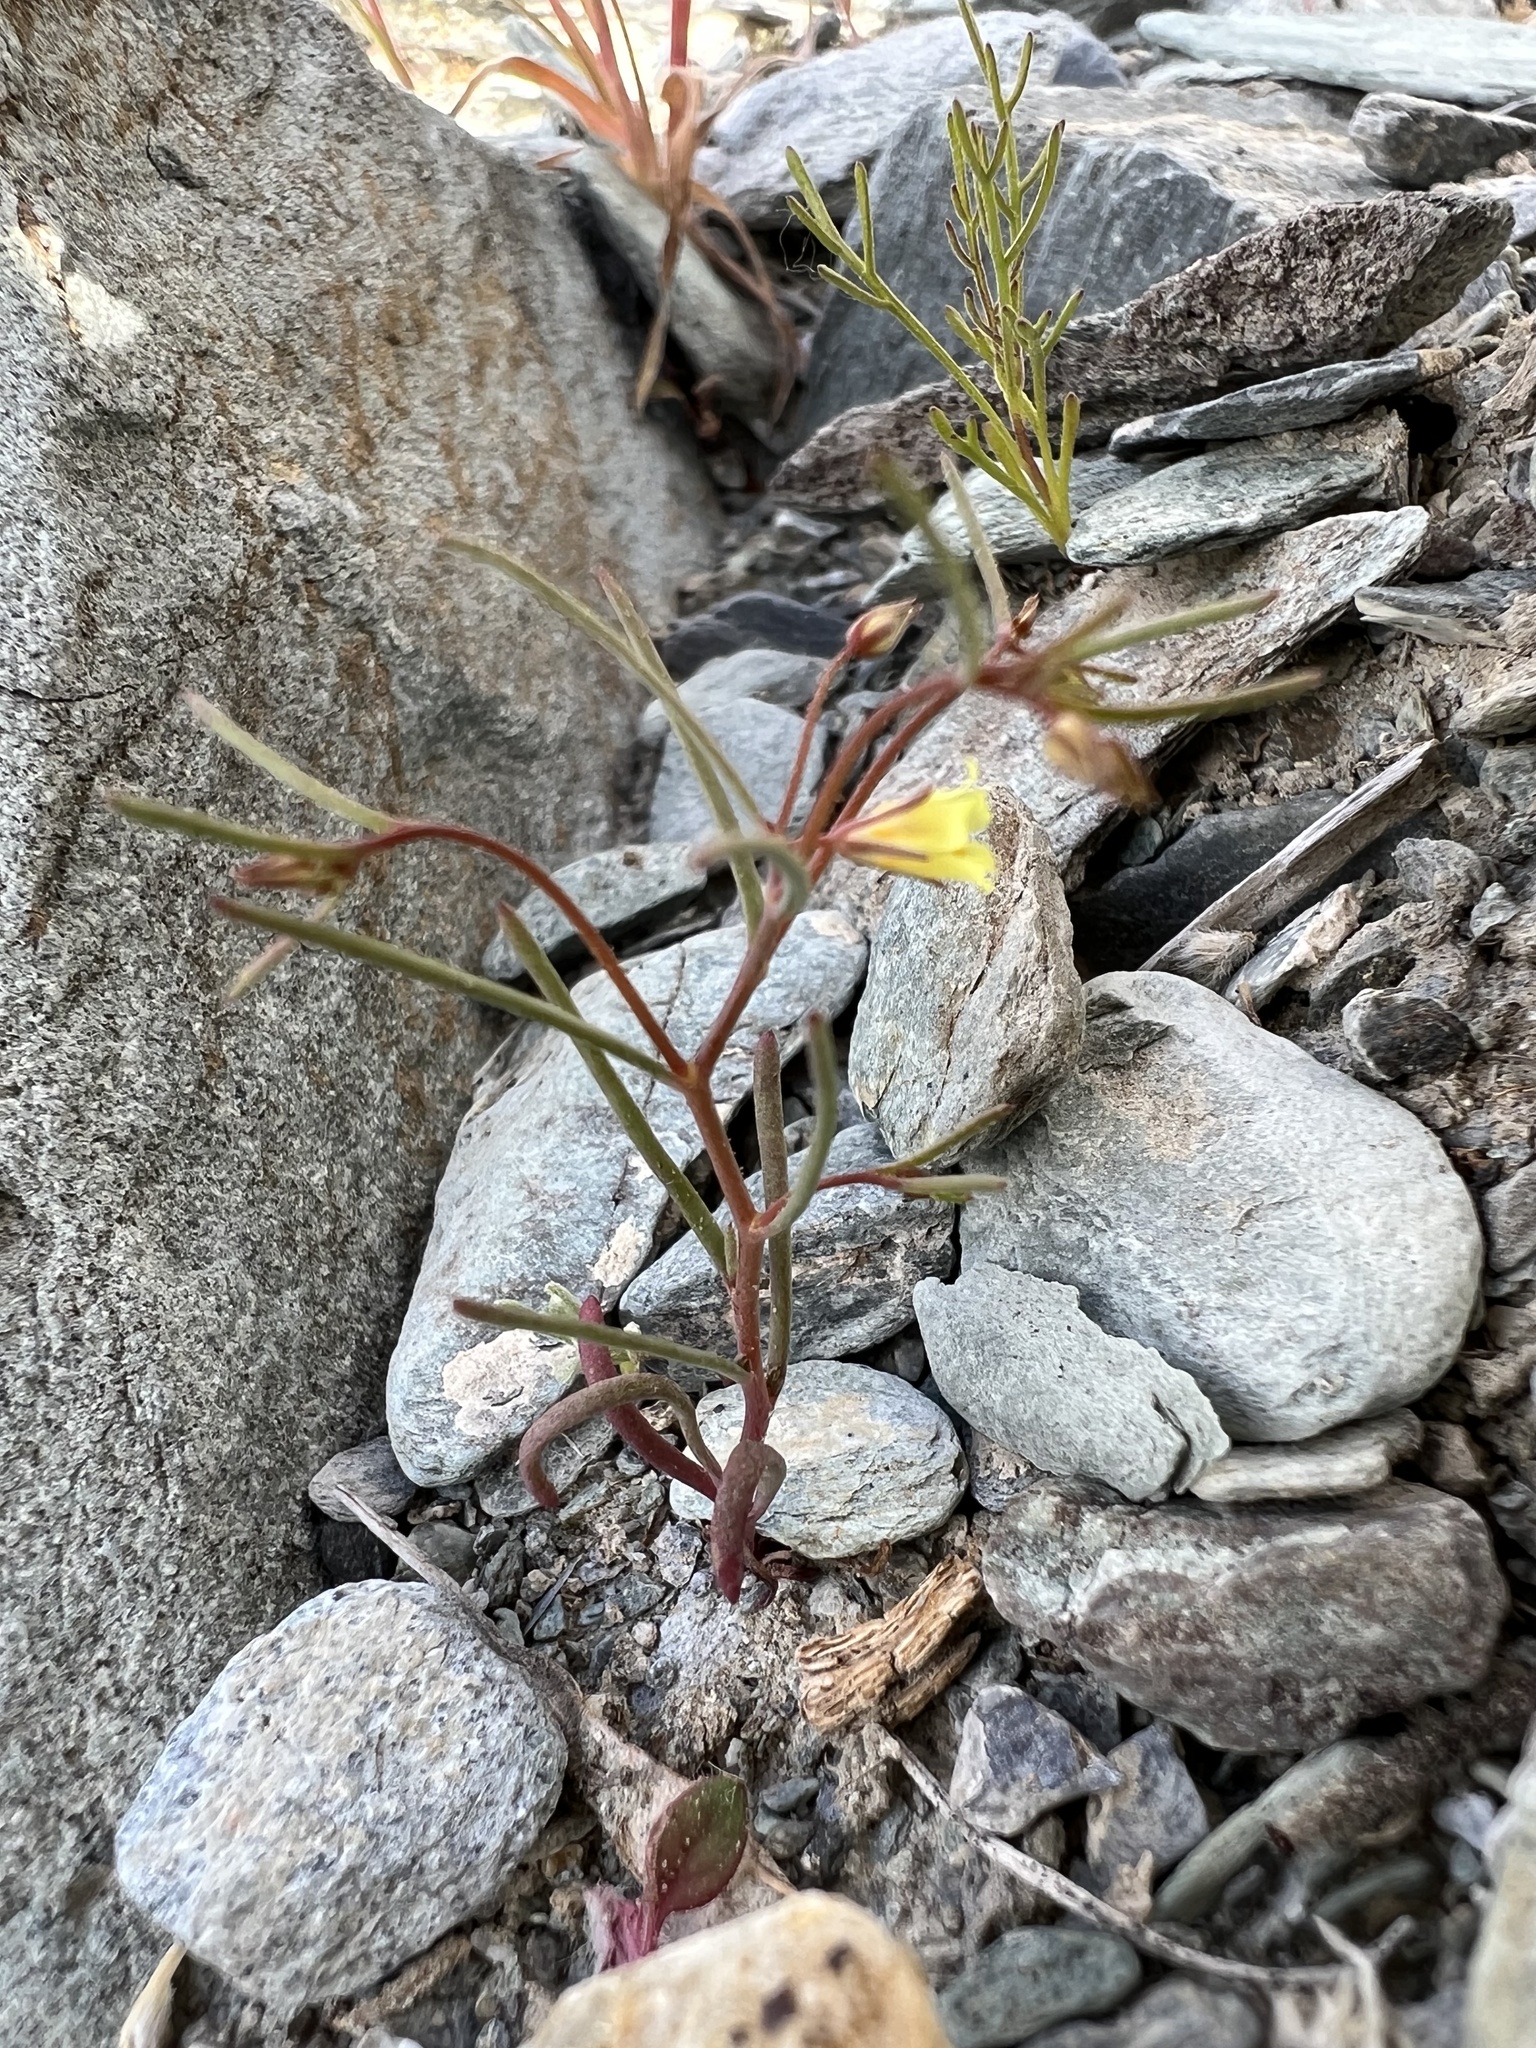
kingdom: Plantae
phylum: Tracheophyta
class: Magnoliopsida
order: Ericales
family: Polemoniaceae
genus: Linanthus
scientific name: Linanthus filiformis
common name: Yellow gilia
